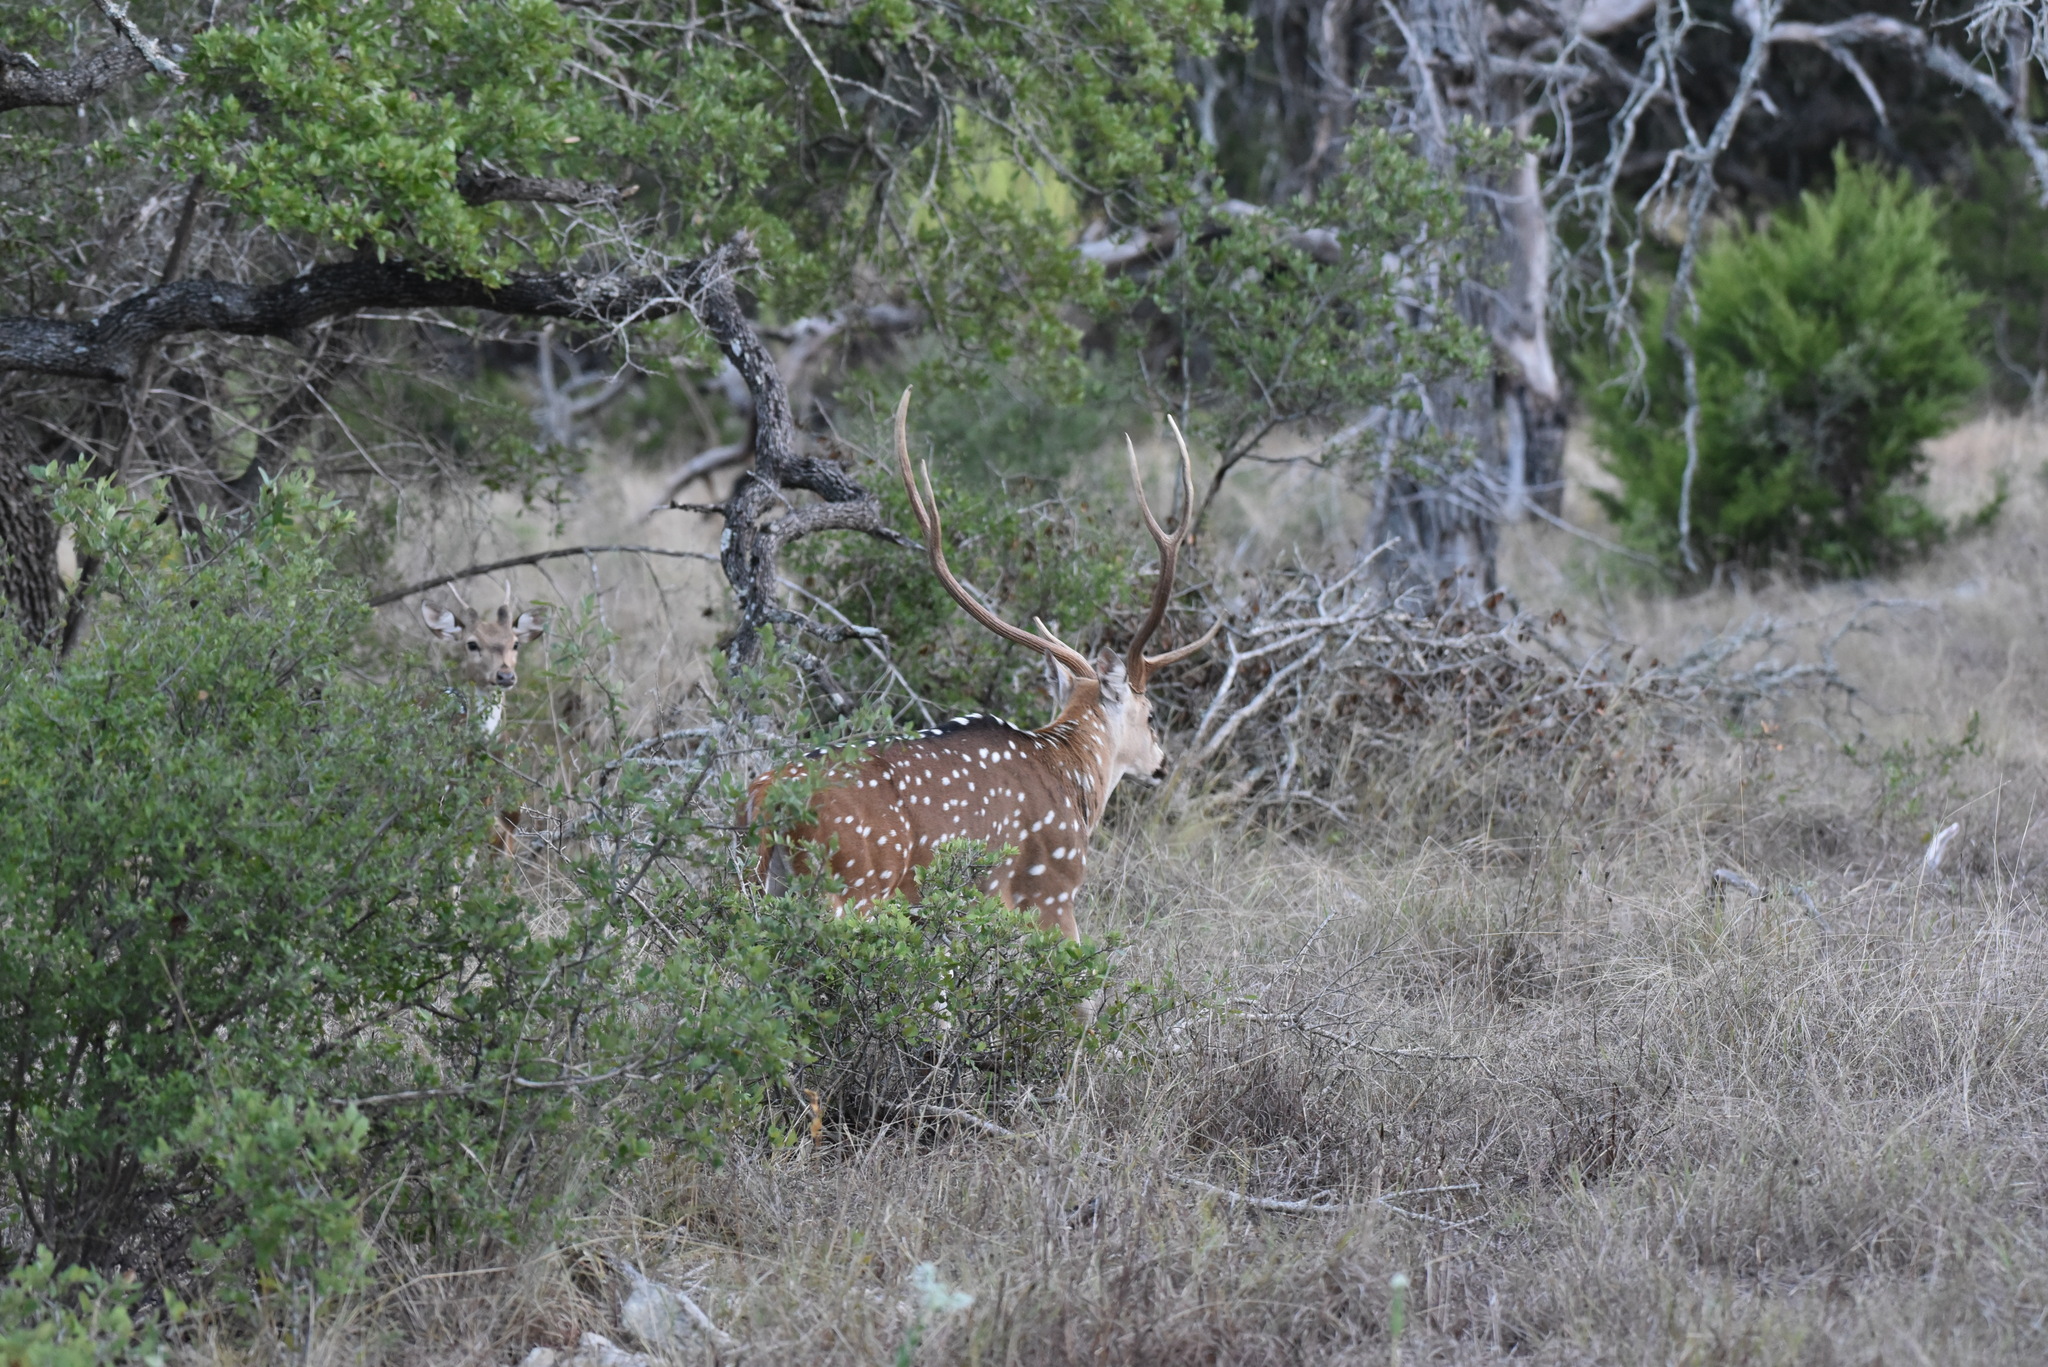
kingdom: Animalia
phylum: Chordata
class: Mammalia
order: Artiodactyla
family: Cervidae
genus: Axis
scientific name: Axis axis
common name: Chital
